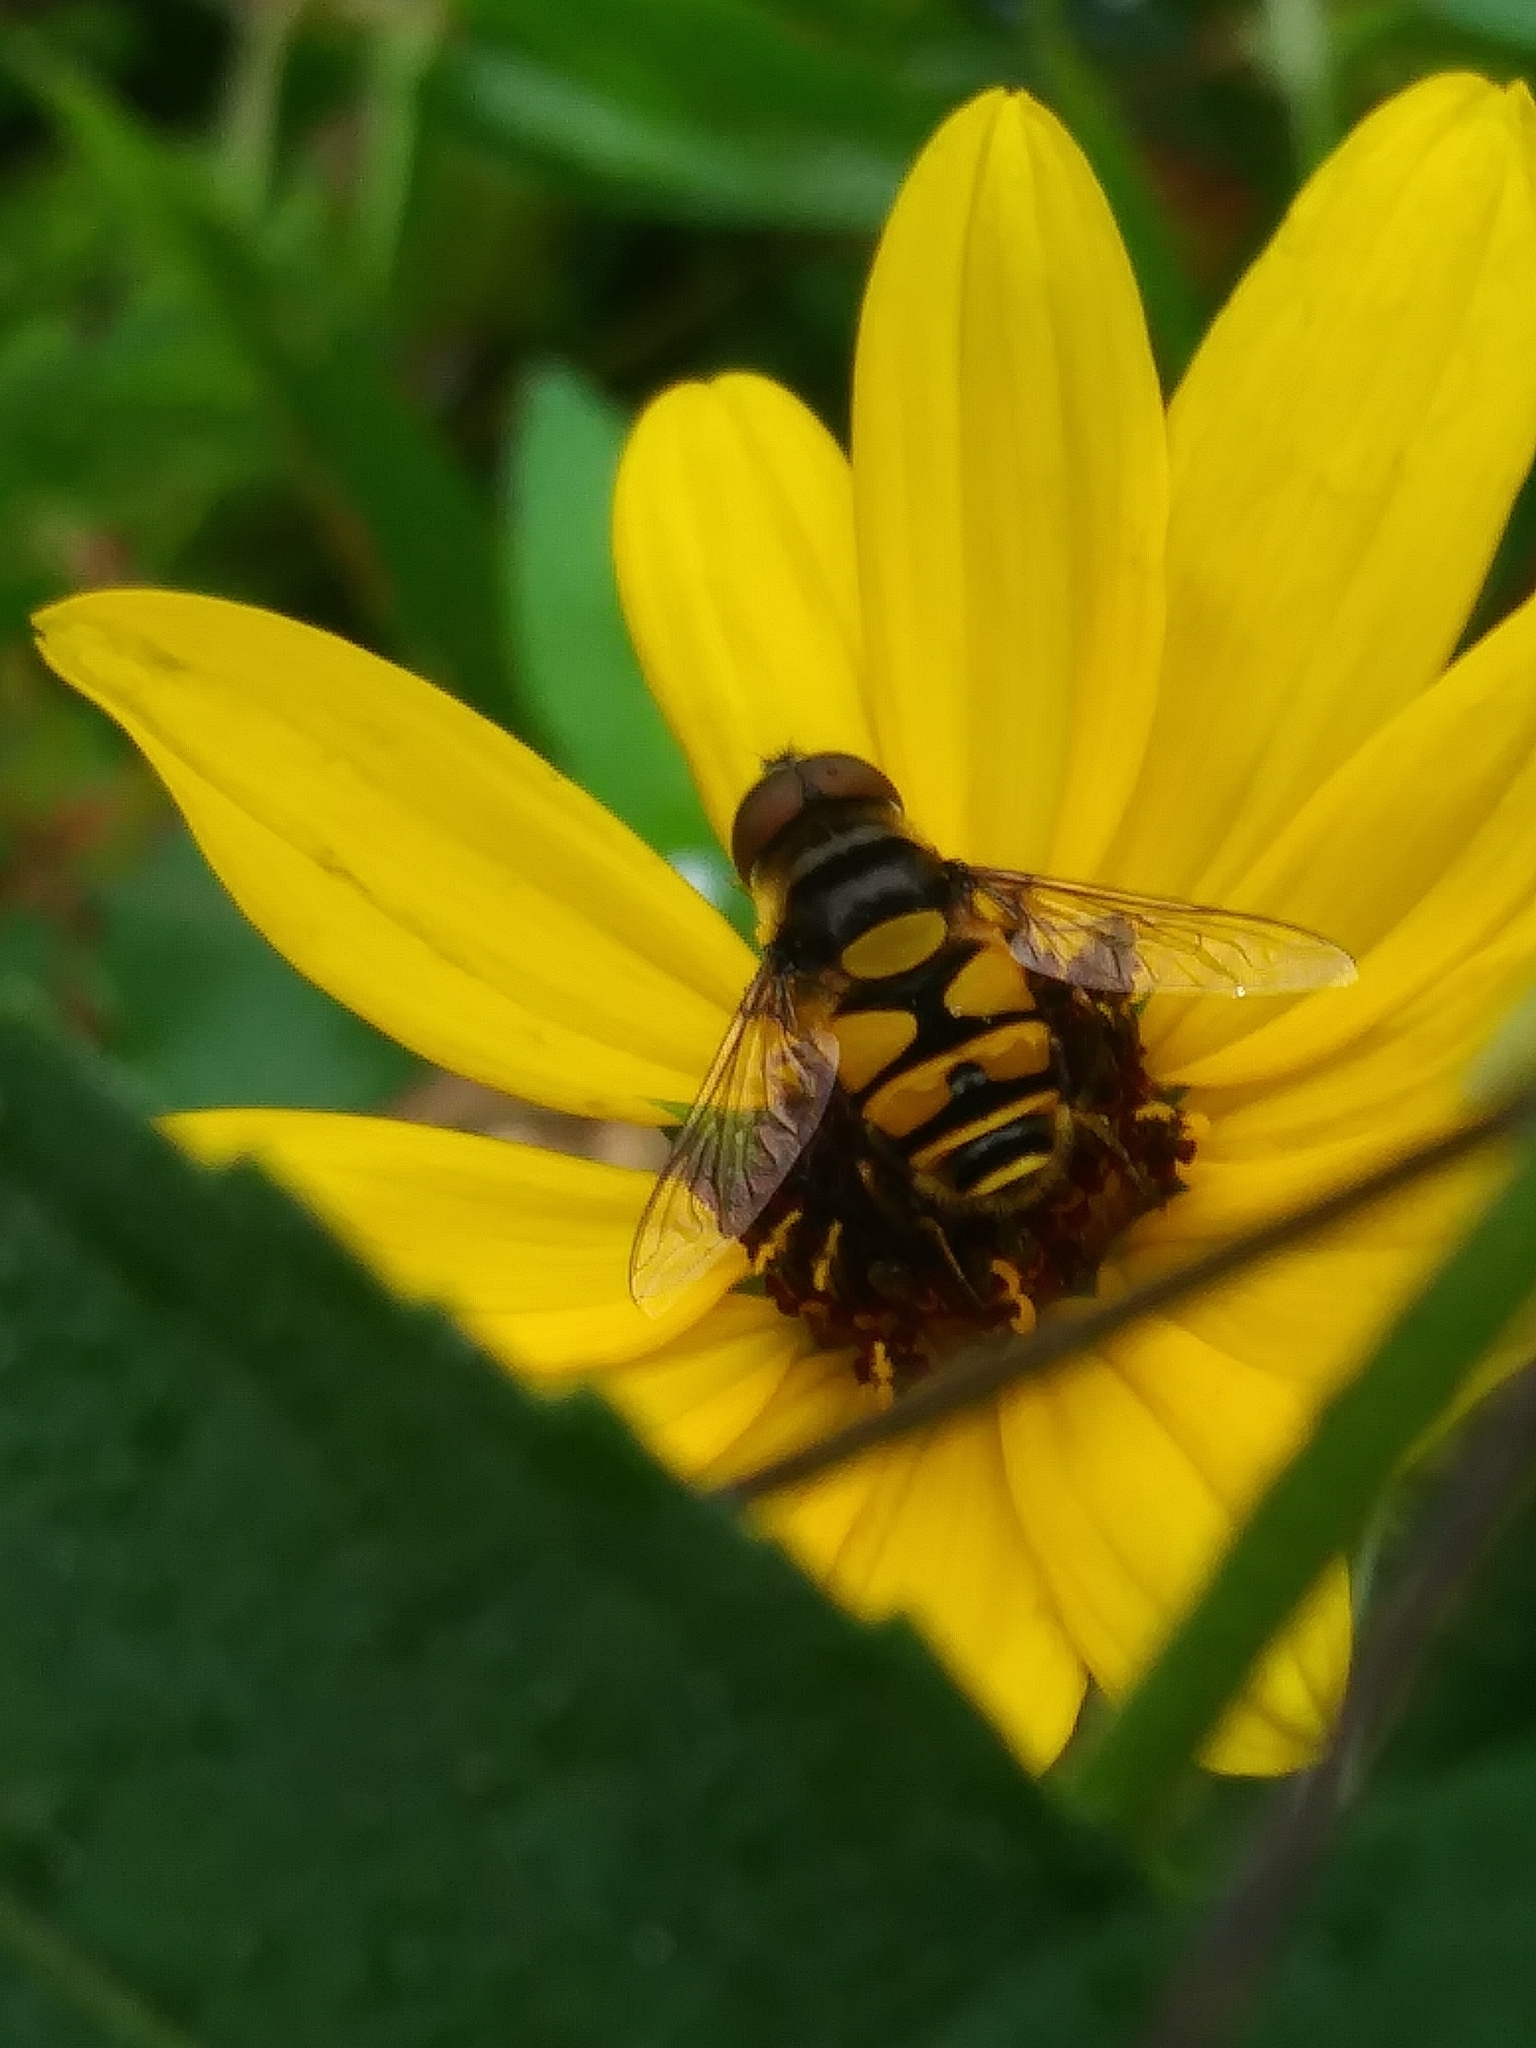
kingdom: Animalia
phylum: Arthropoda
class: Insecta
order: Diptera
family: Syrphidae
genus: Eristalis
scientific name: Eristalis transversa
